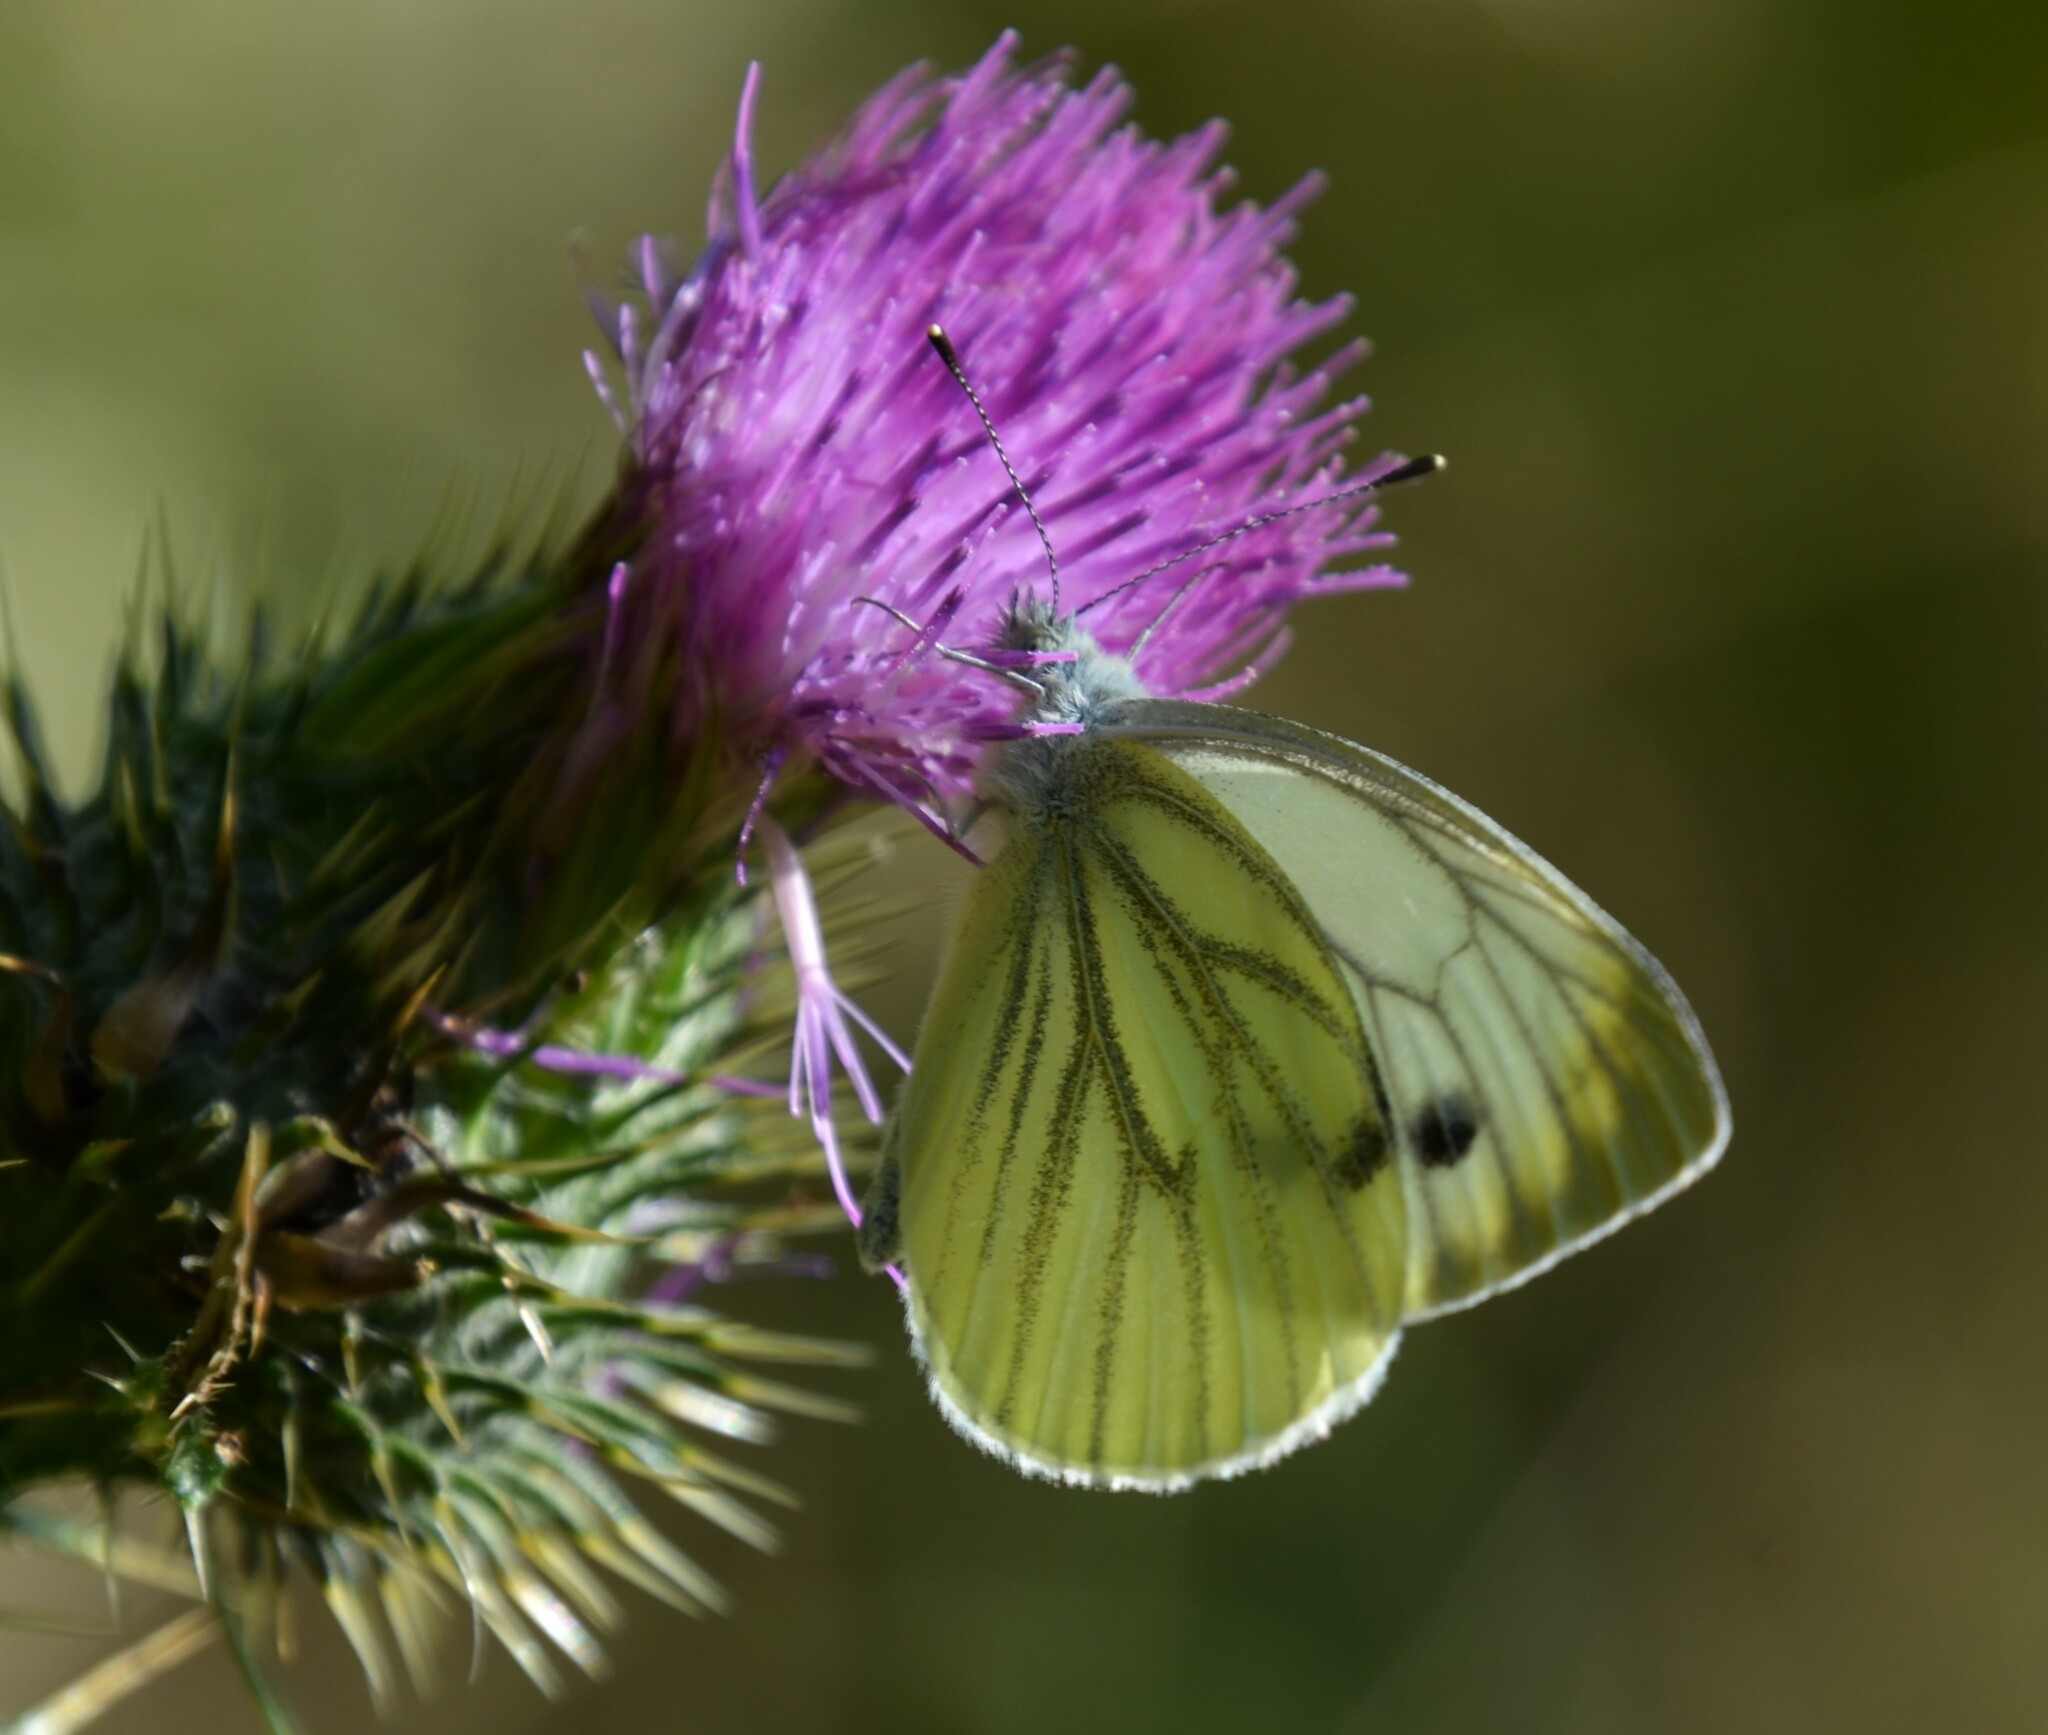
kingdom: Animalia
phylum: Arthropoda
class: Insecta
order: Lepidoptera
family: Pieridae
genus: Pieris
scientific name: Pieris napi
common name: Green-veined white
